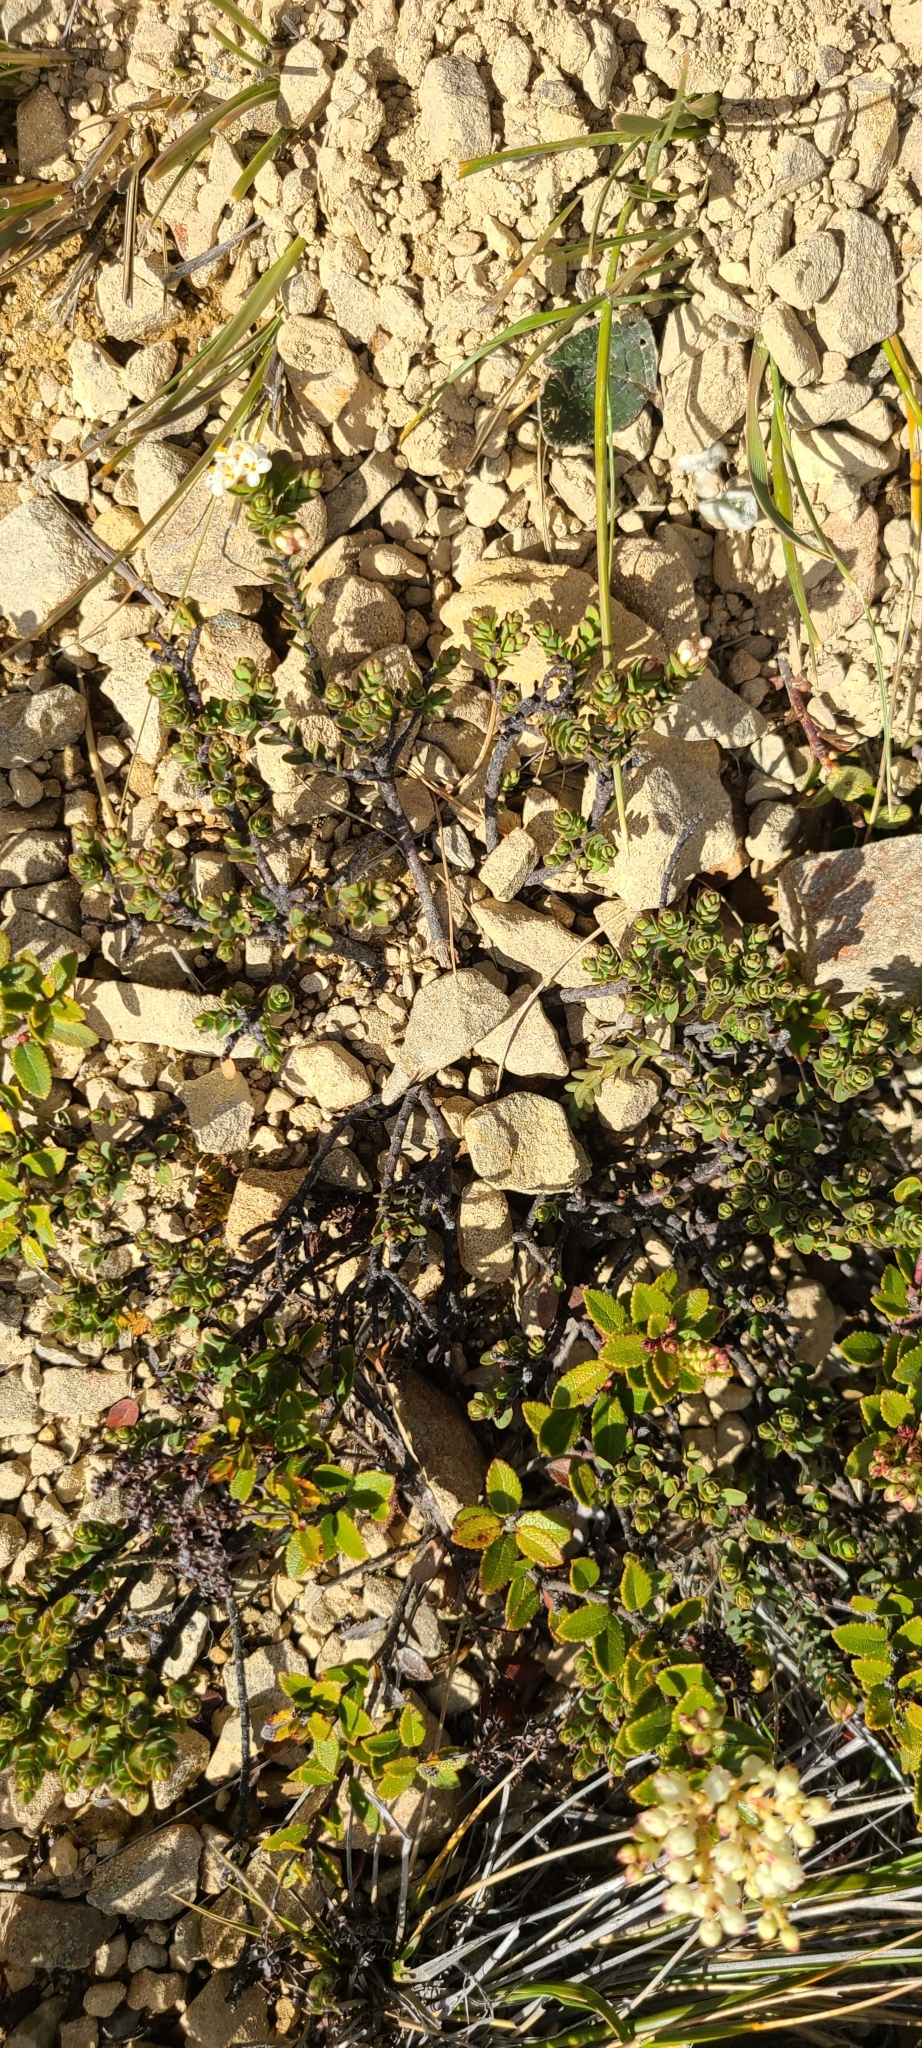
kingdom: Plantae
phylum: Tracheophyta
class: Magnoliopsida
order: Malvales
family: Thymelaeaceae
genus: Pimelea
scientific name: Pimelea traversii
